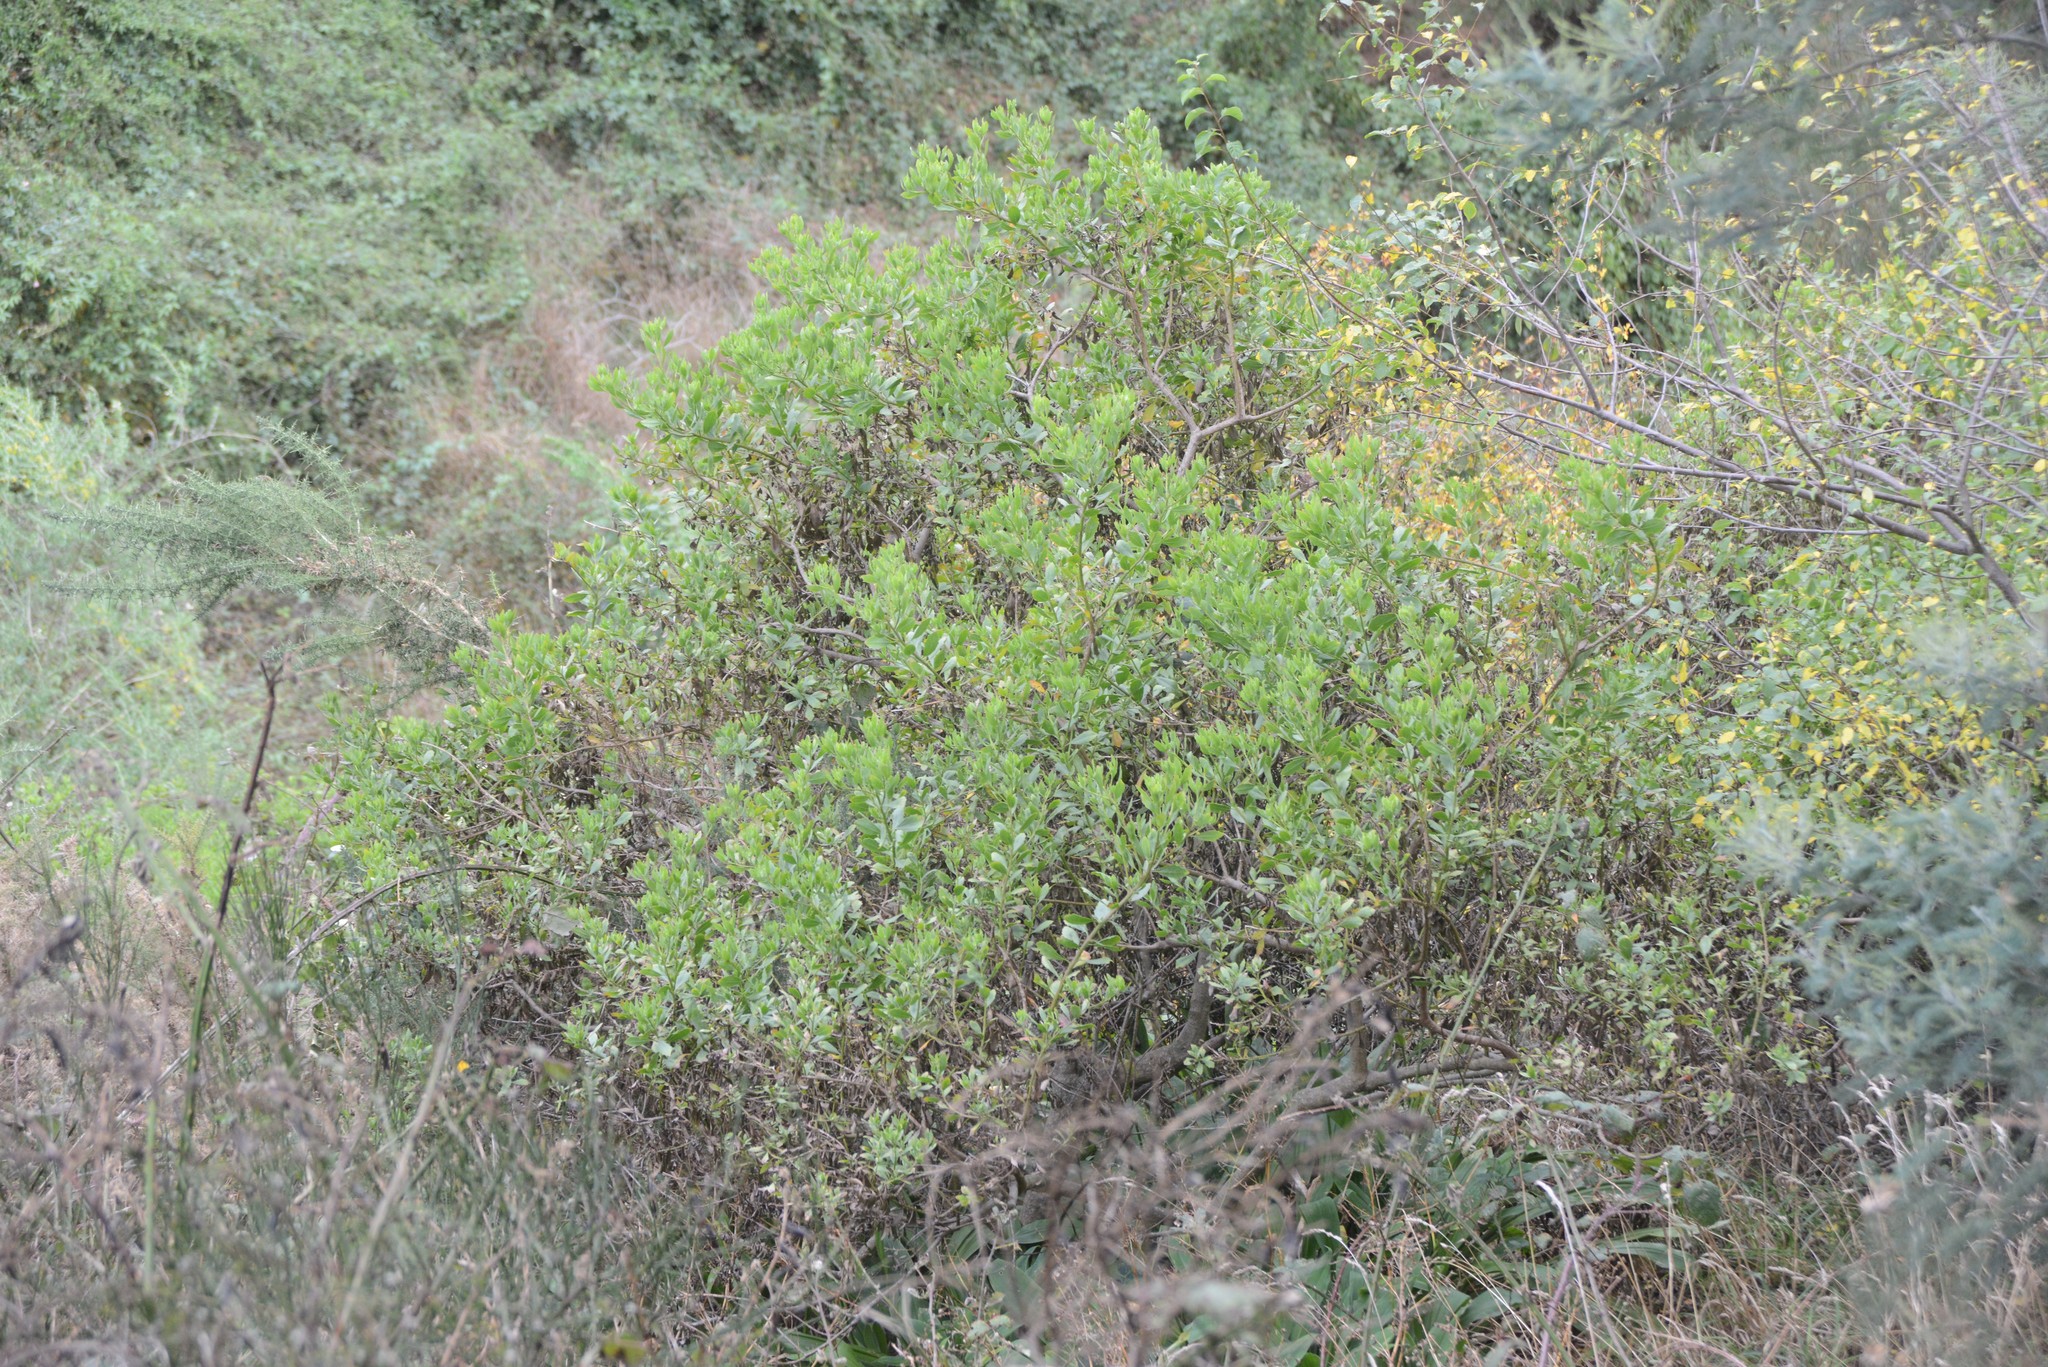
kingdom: Plantae
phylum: Tracheophyta
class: Magnoliopsida
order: Asterales
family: Asteraceae
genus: Osteospermum
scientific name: Osteospermum moniliferum
